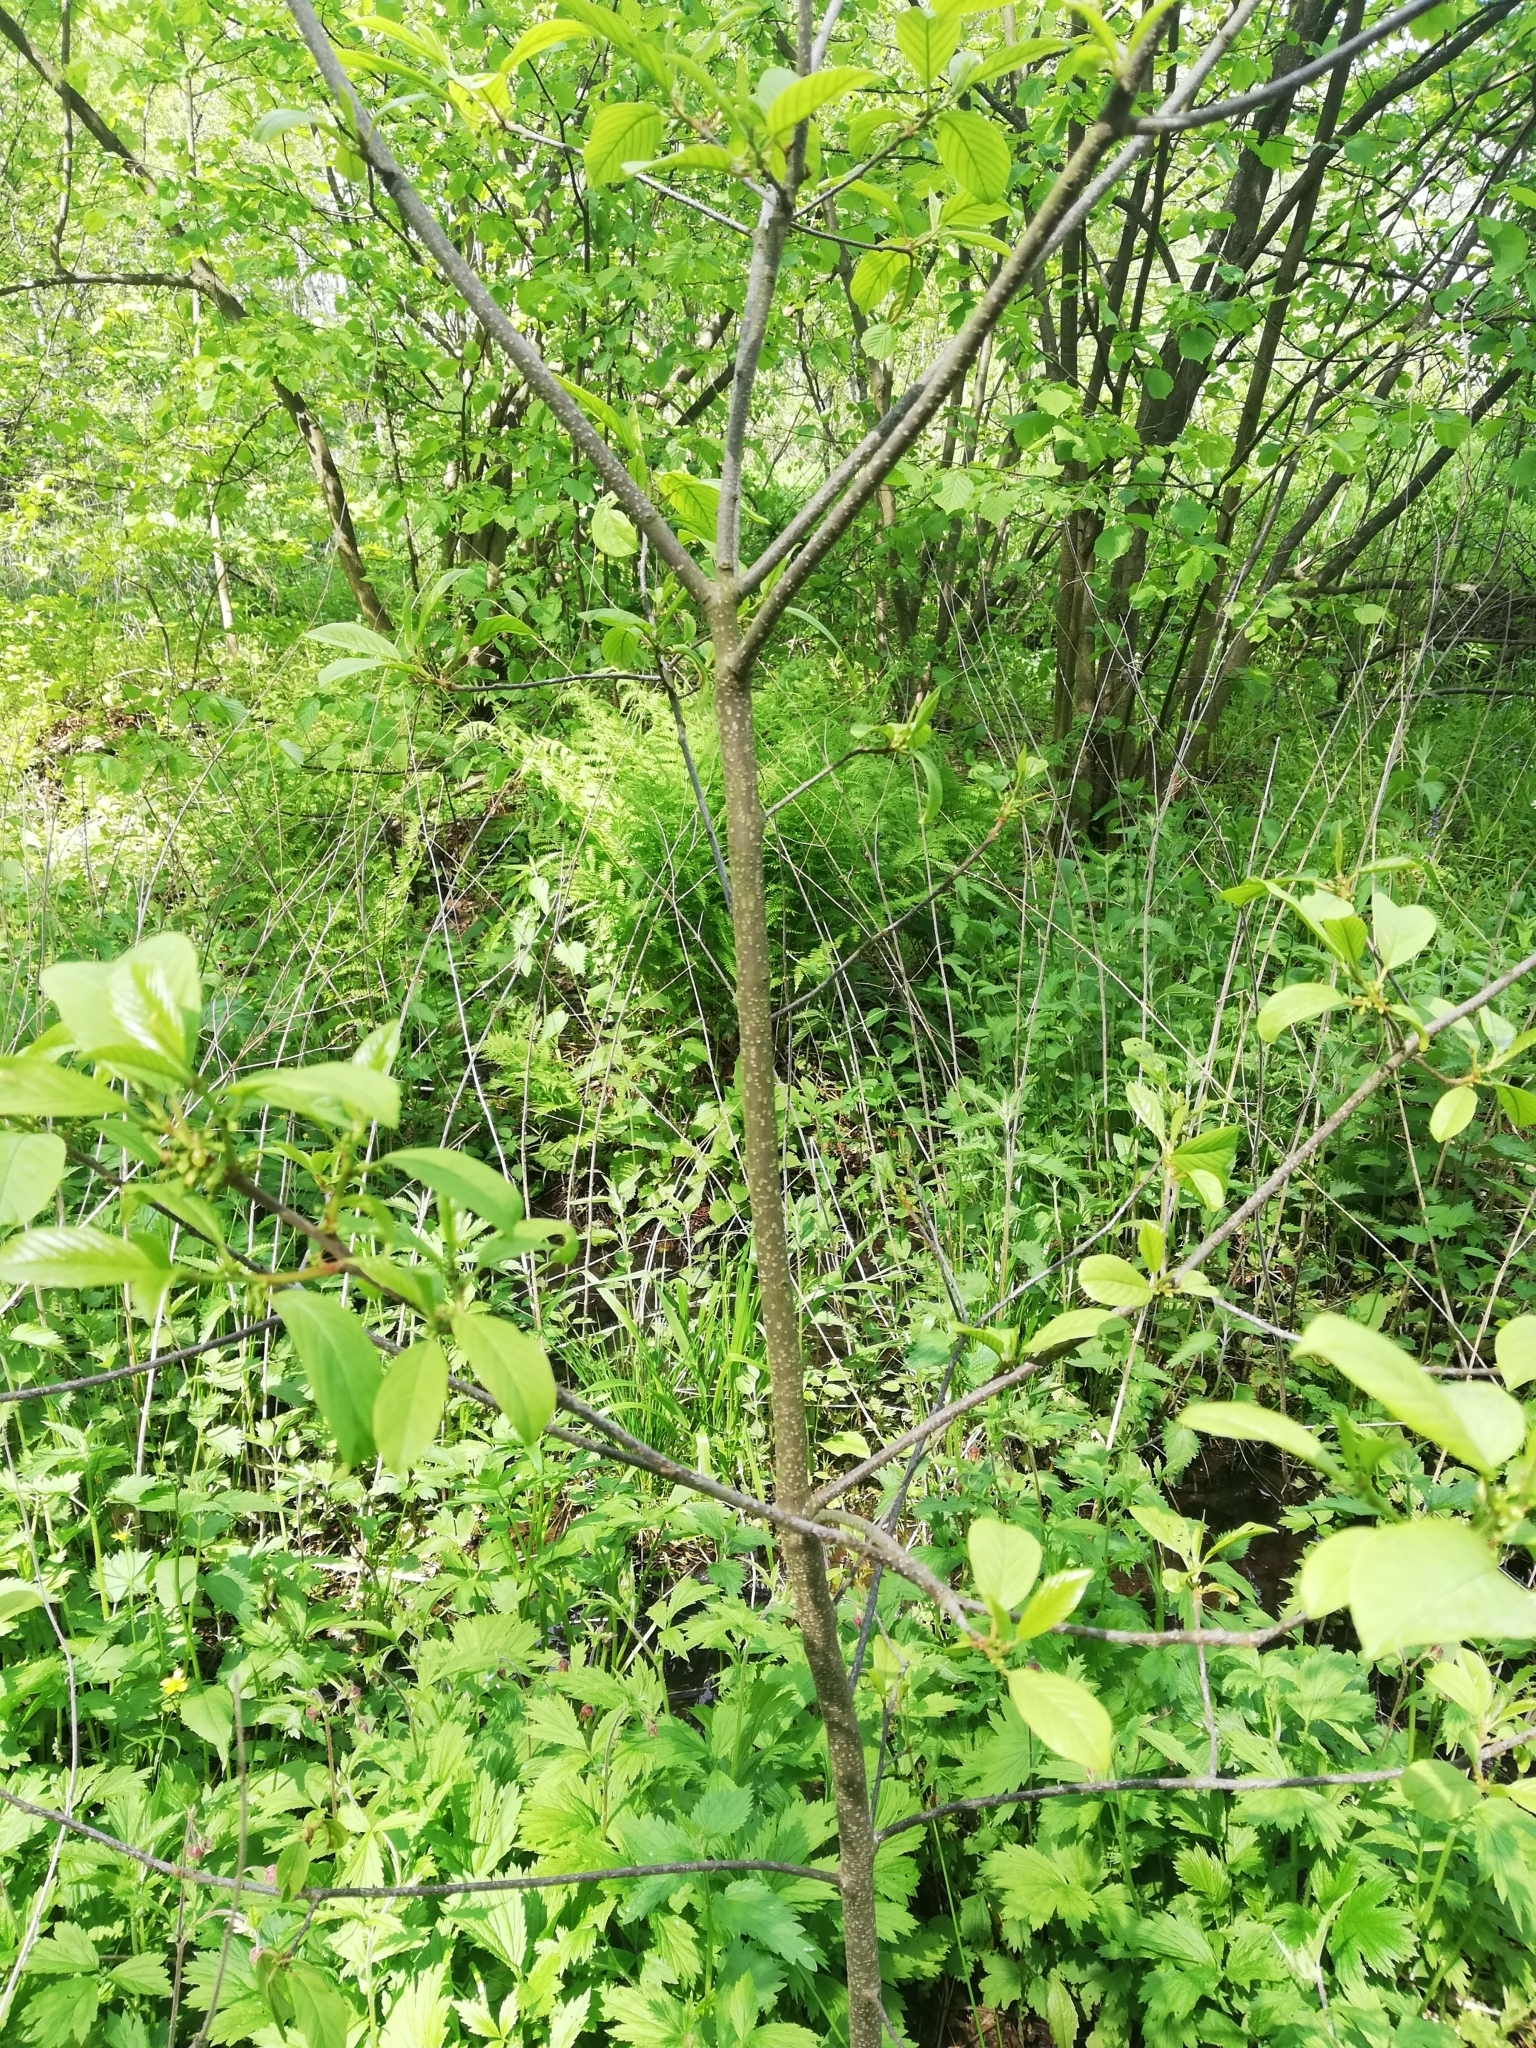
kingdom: Plantae
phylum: Tracheophyta
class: Magnoliopsida
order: Rosales
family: Rhamnaceae
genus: Frangula
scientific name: Frangula alnus
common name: Alder buckthorn
